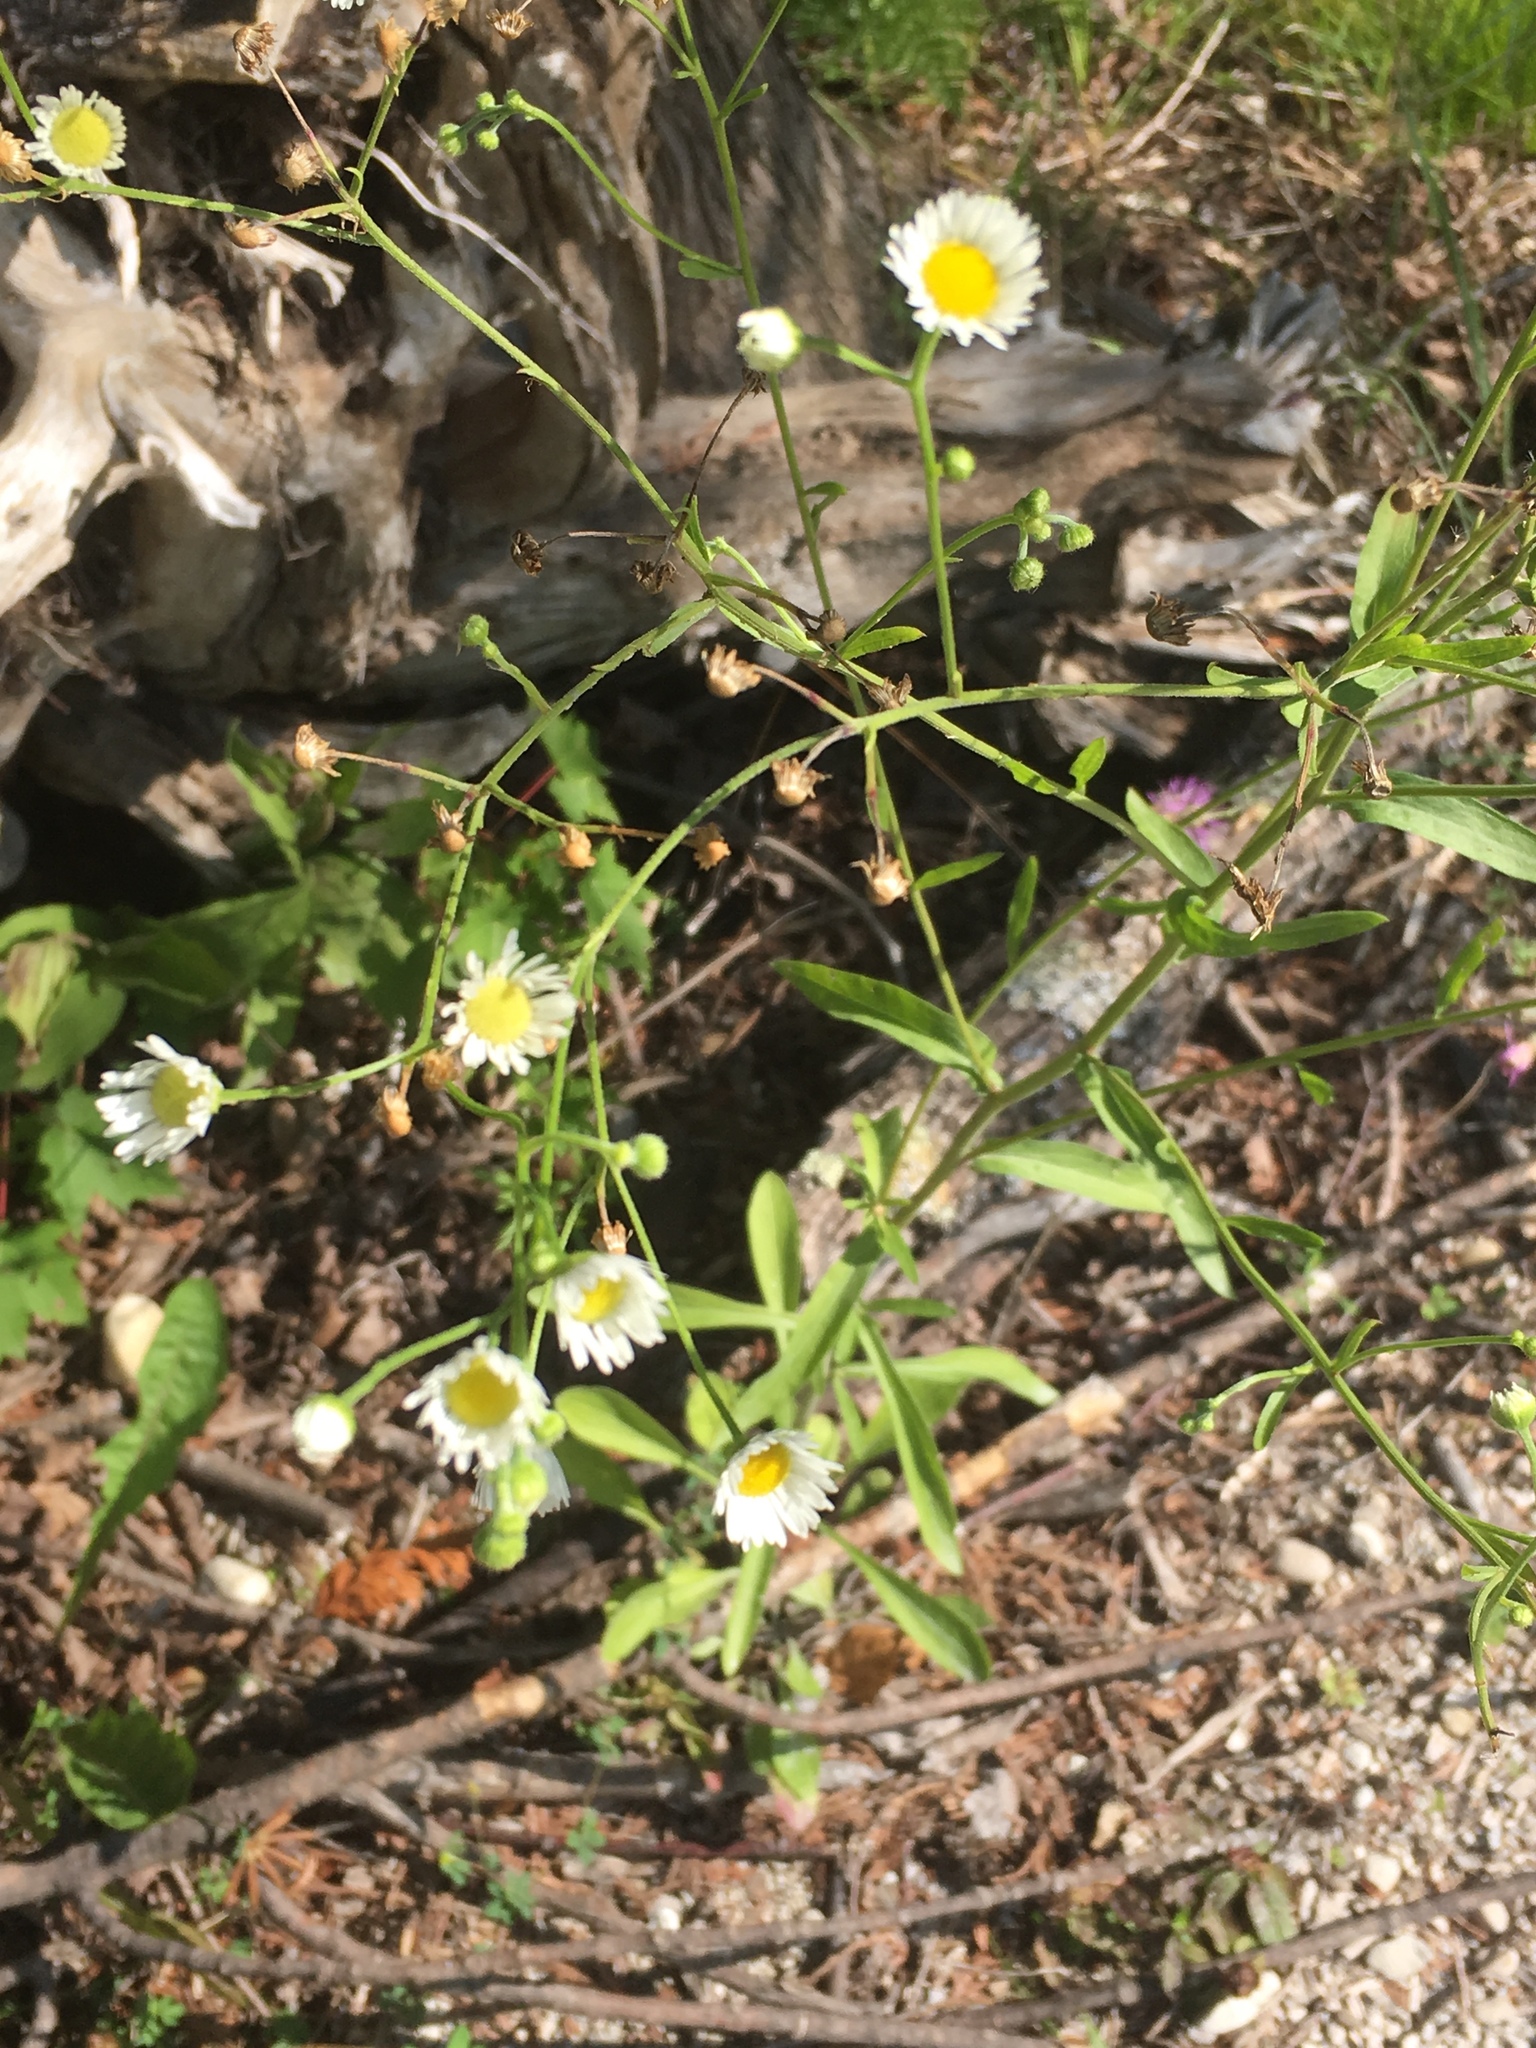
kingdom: Plantae
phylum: Tracheophyta
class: Magnoliopsida
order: Asterales
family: Asteraceae
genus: Erigeron
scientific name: Erigeron strigosus
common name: Common eastern fleabane
